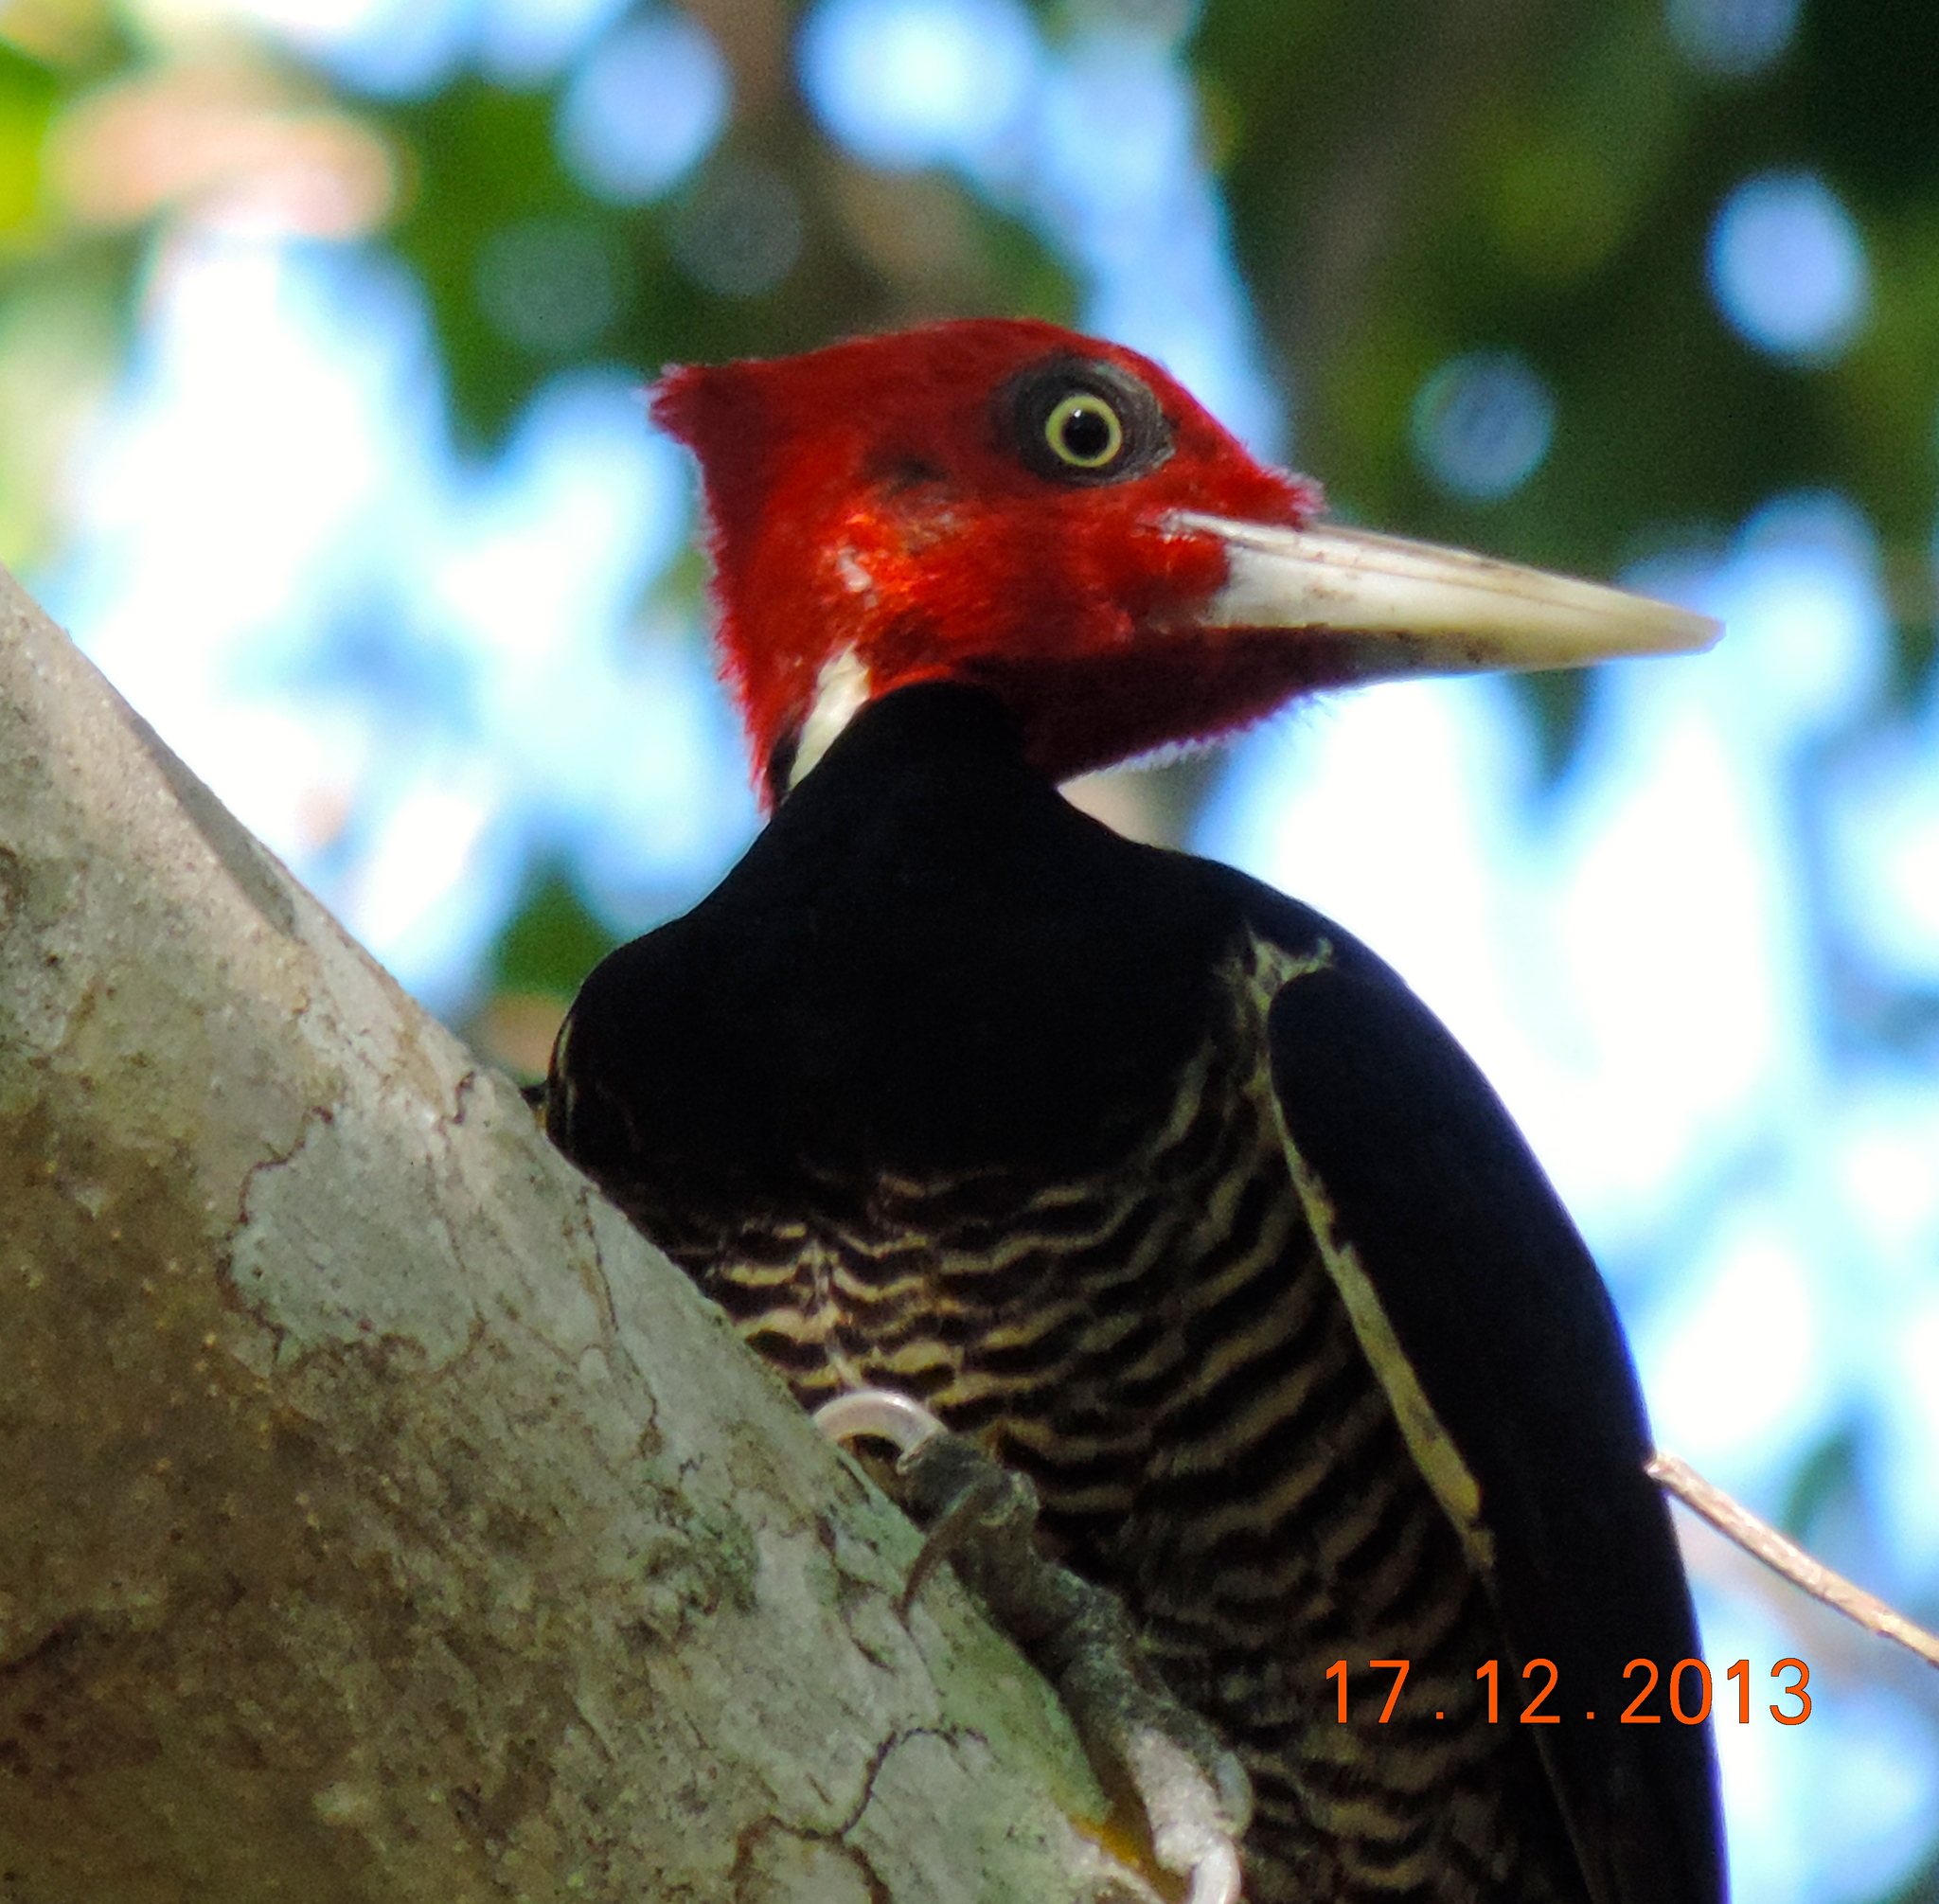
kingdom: Animalia
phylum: Chordata
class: Aves
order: Piciformes
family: Picidae
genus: Campephilus
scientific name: Campephilus guatemalensis
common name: Pale-billed woodpecker
